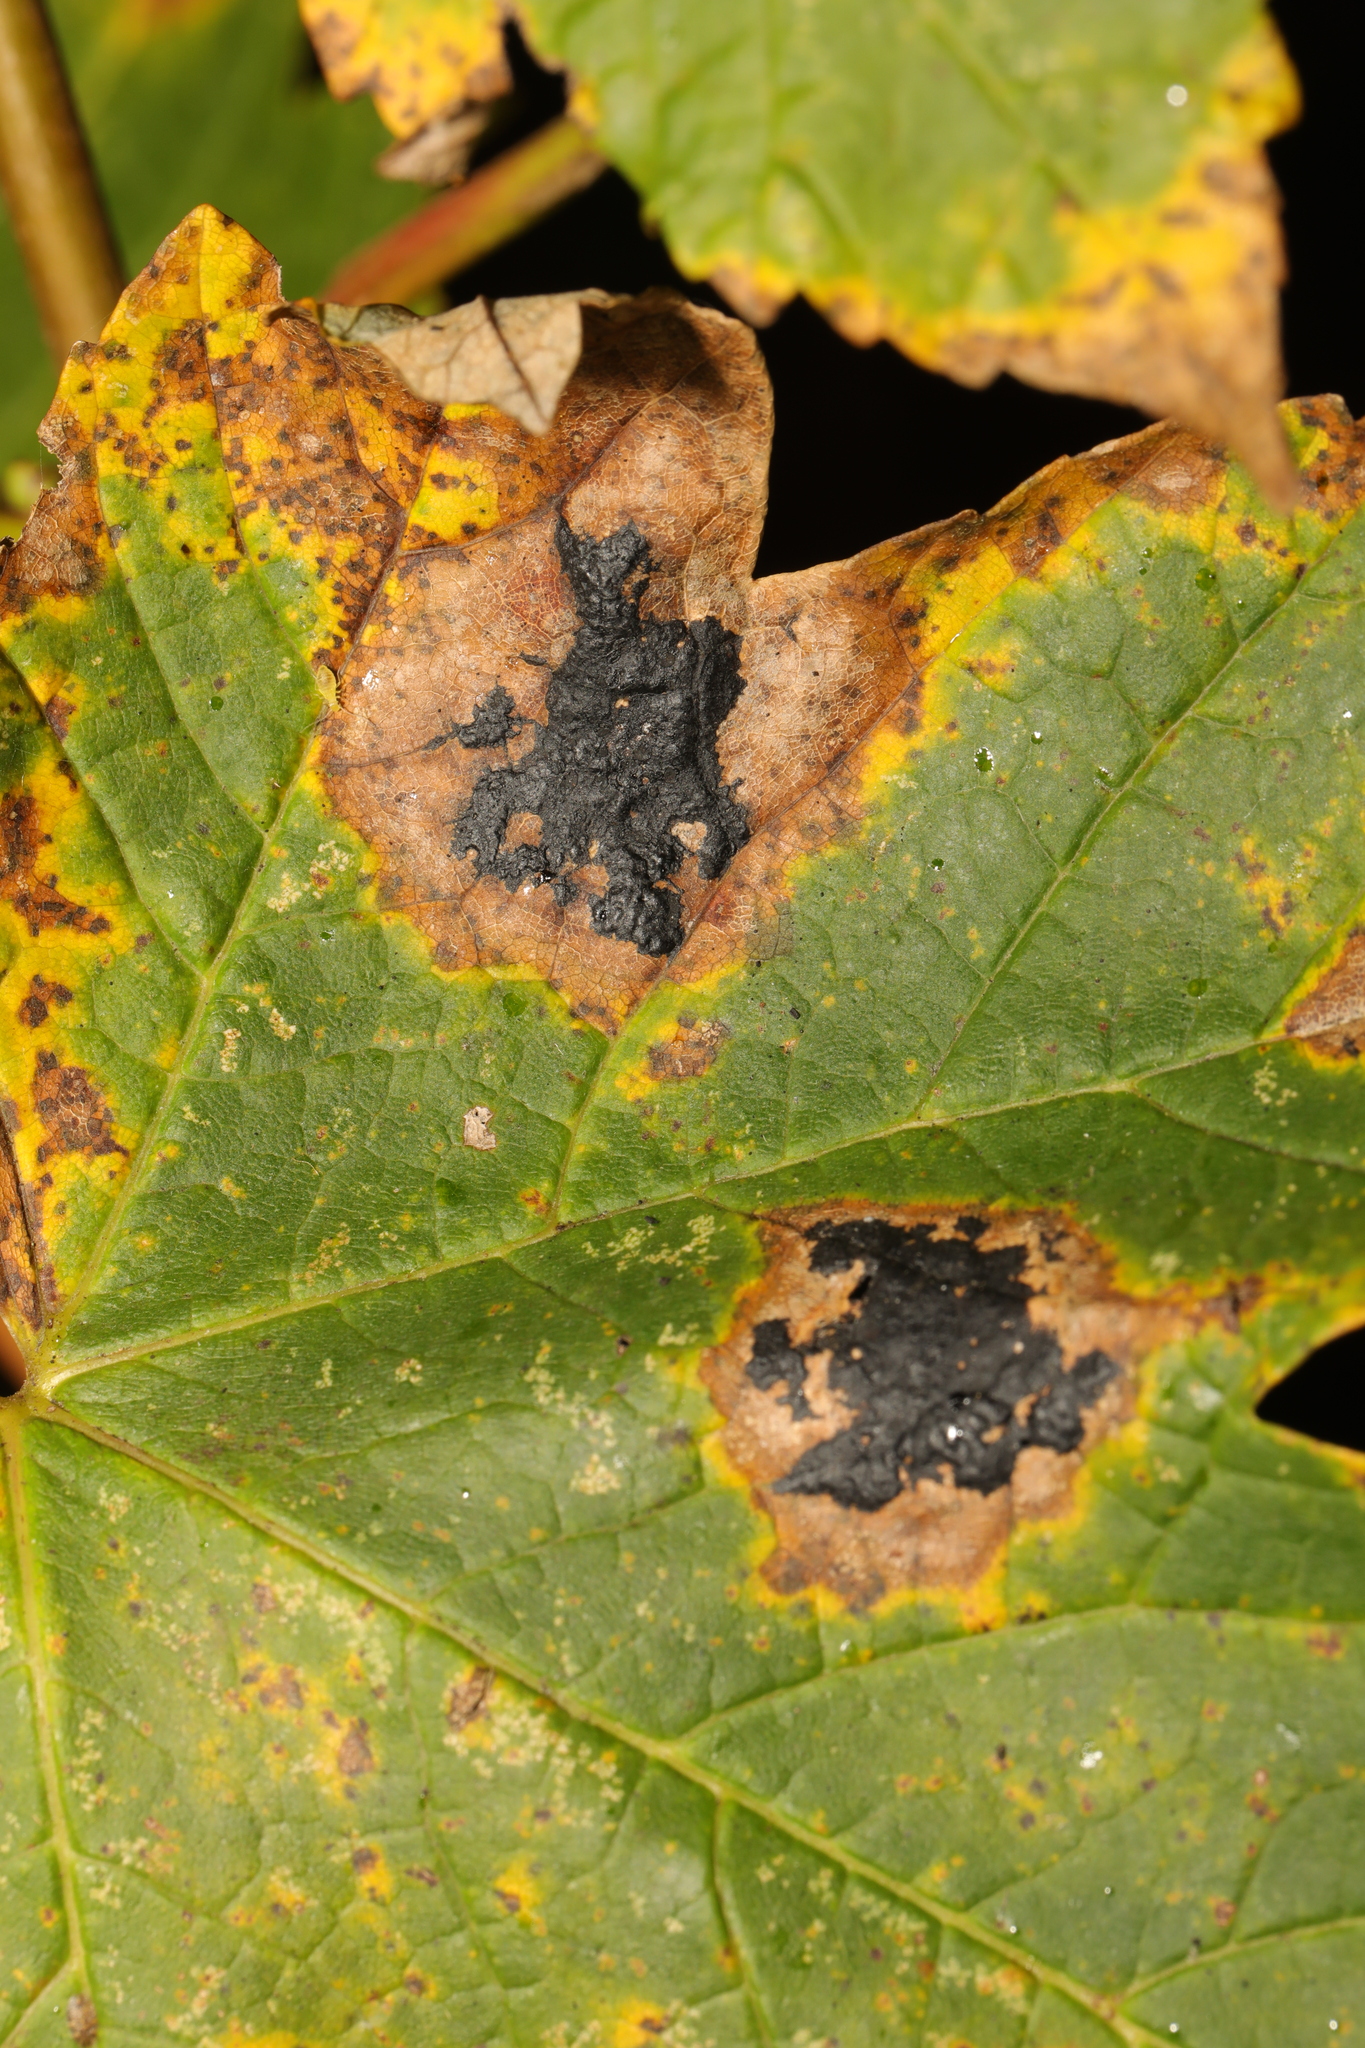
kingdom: Fungi
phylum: Ascomycota
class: Leotiomycetes
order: Rhytismatales
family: Rhytismataceae
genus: Rhytisma
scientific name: Rhytisma acerinum
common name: European tar spot
